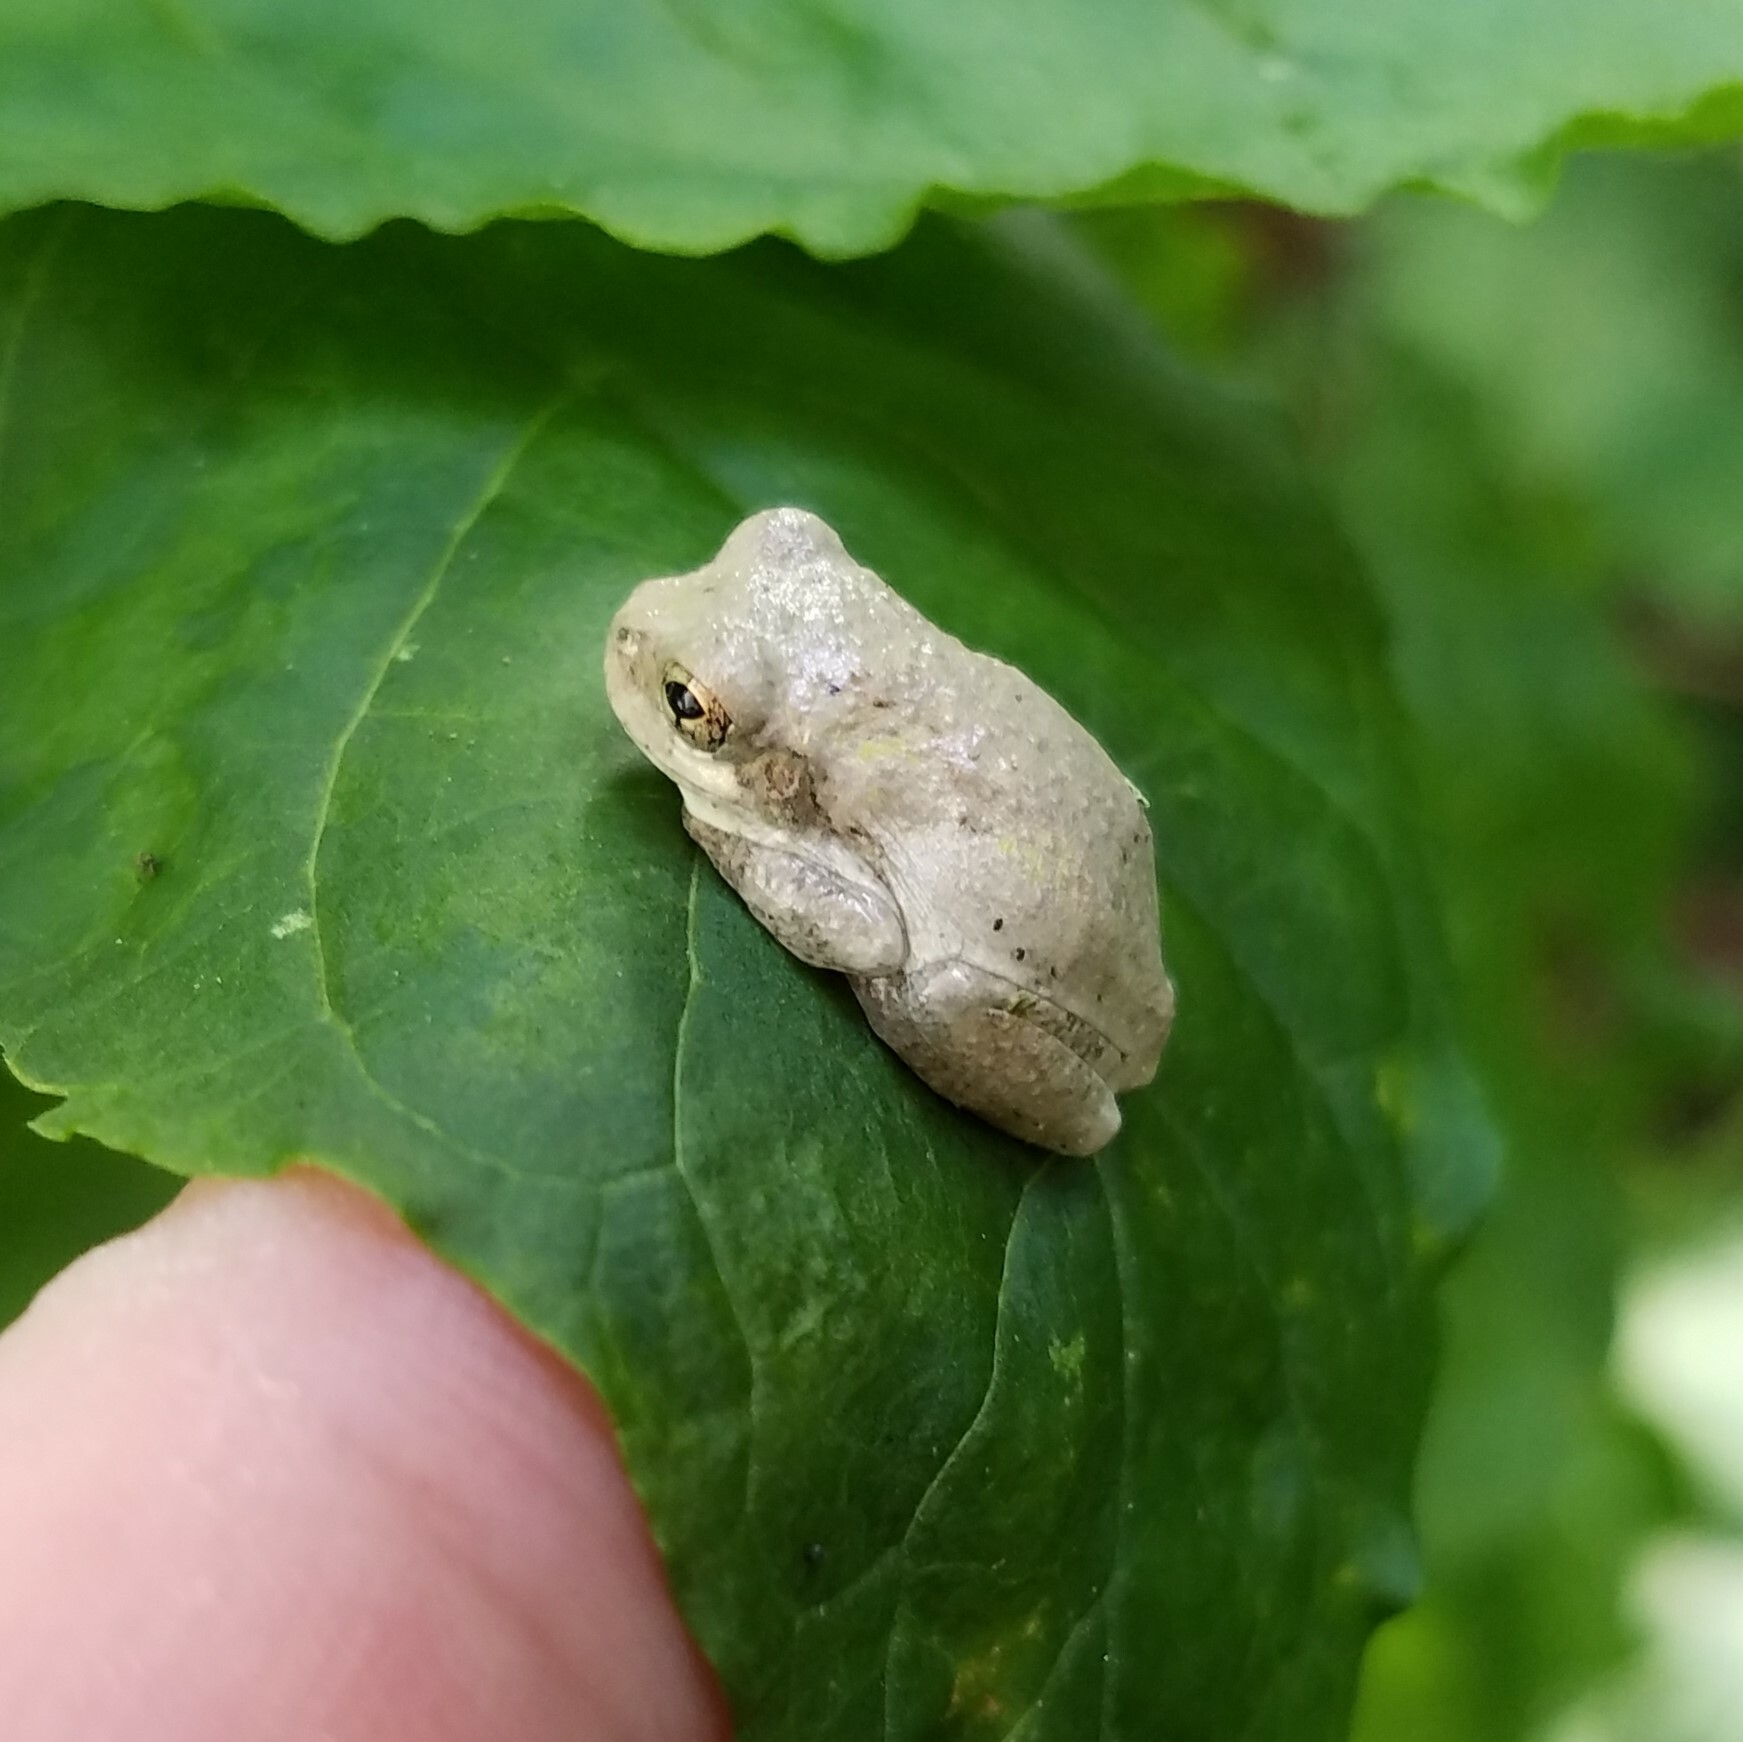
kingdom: Animalia
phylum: Chordata
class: Amphibia
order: Anura
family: Hylidae
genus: Dryophytes
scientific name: Dryophytes chrysoscelis
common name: Cope's gray treefrog
